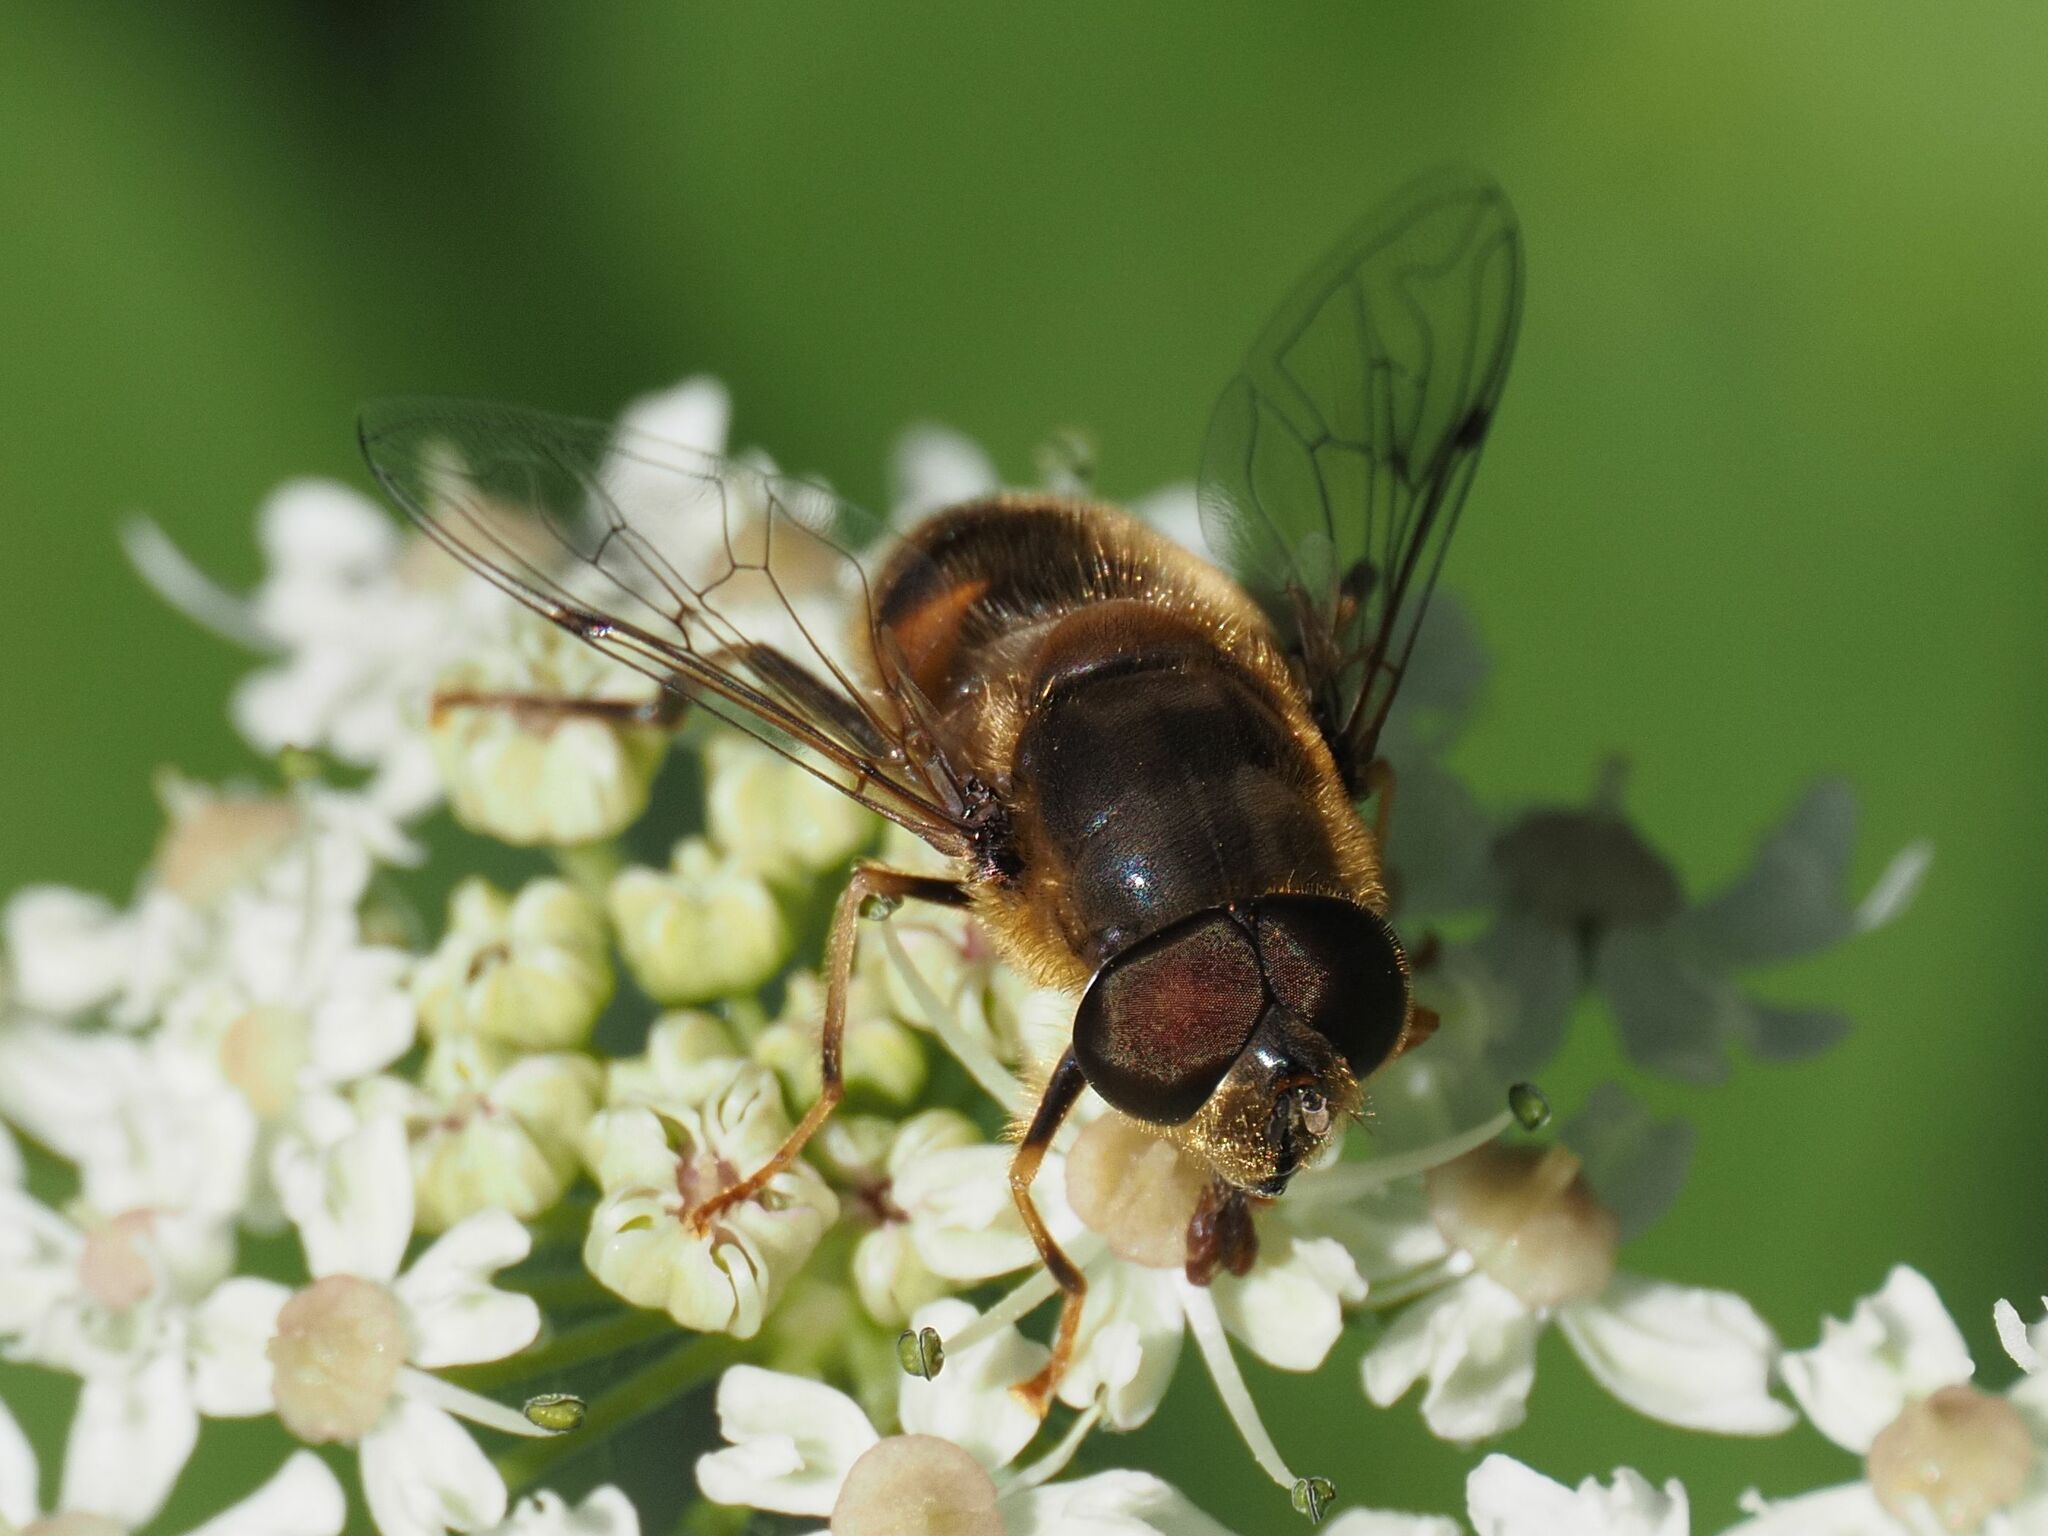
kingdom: Animalia
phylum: Arthropoda
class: Insecta
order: Diptera
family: Syrphidae
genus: Eristalis
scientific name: Eristalis pertinax
